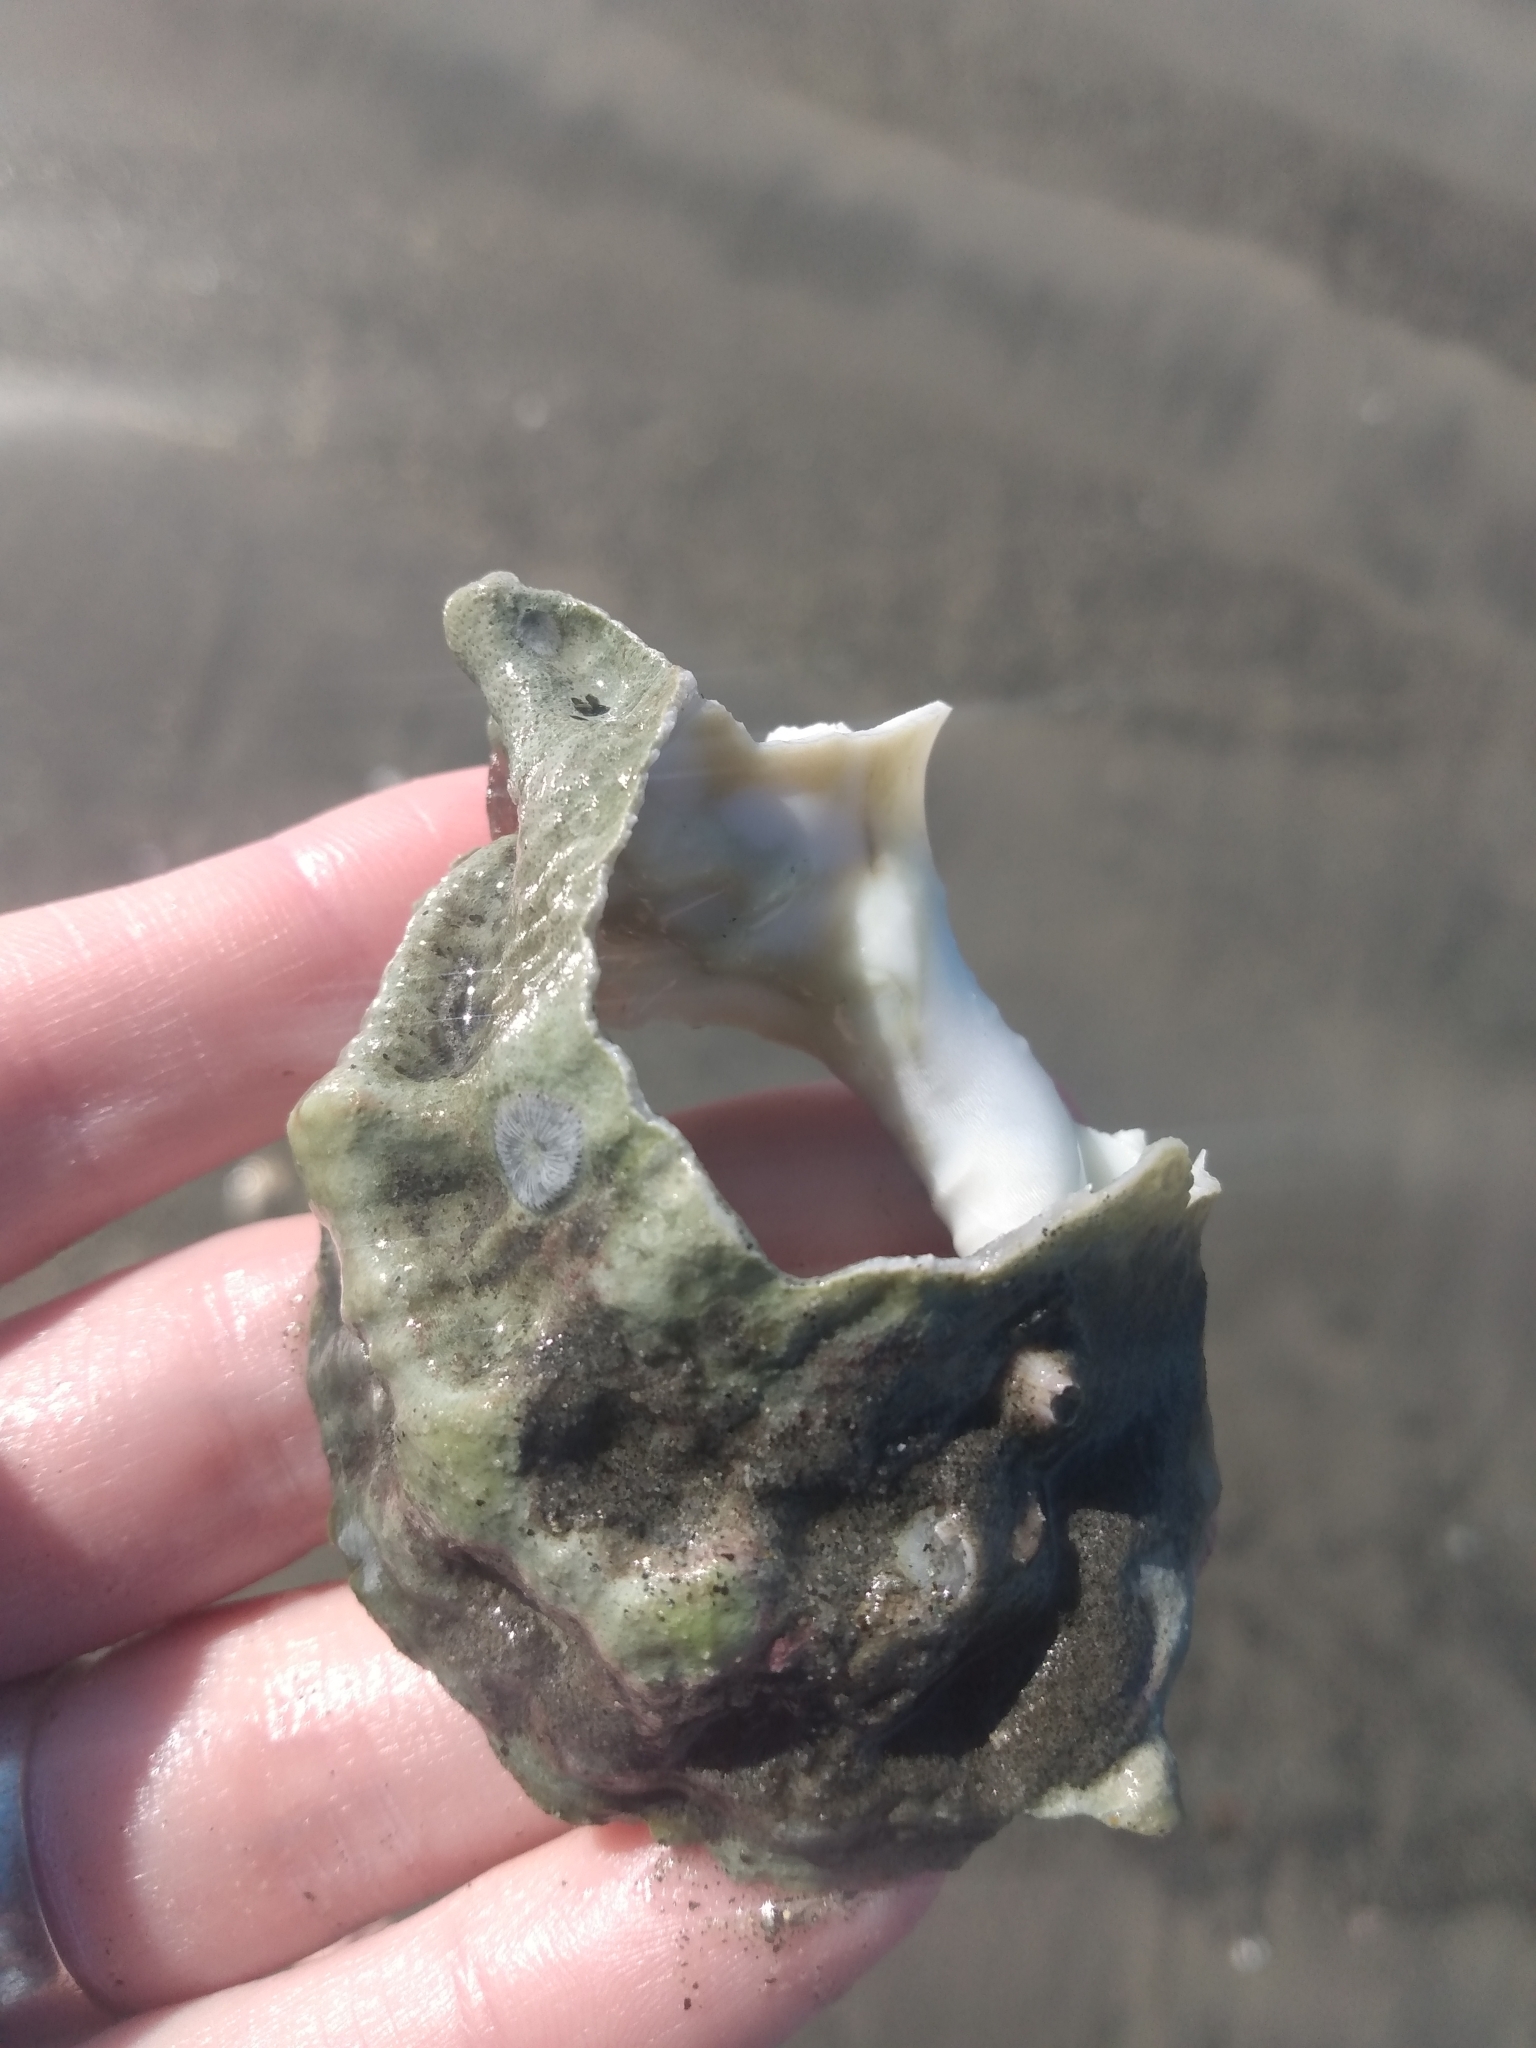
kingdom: Animalia
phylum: Mollusca
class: Gastropoda
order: Littorinimorpha
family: Bursidae
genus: Crossata
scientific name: Crossata californica
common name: California frogsnail
